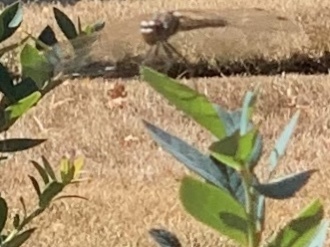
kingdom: Animalia
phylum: Arthropoda
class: Insecta
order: Odonata
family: Libellulidae
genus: Sympetrum
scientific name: Sympetrum corruptum
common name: Variegated meadowhawk
